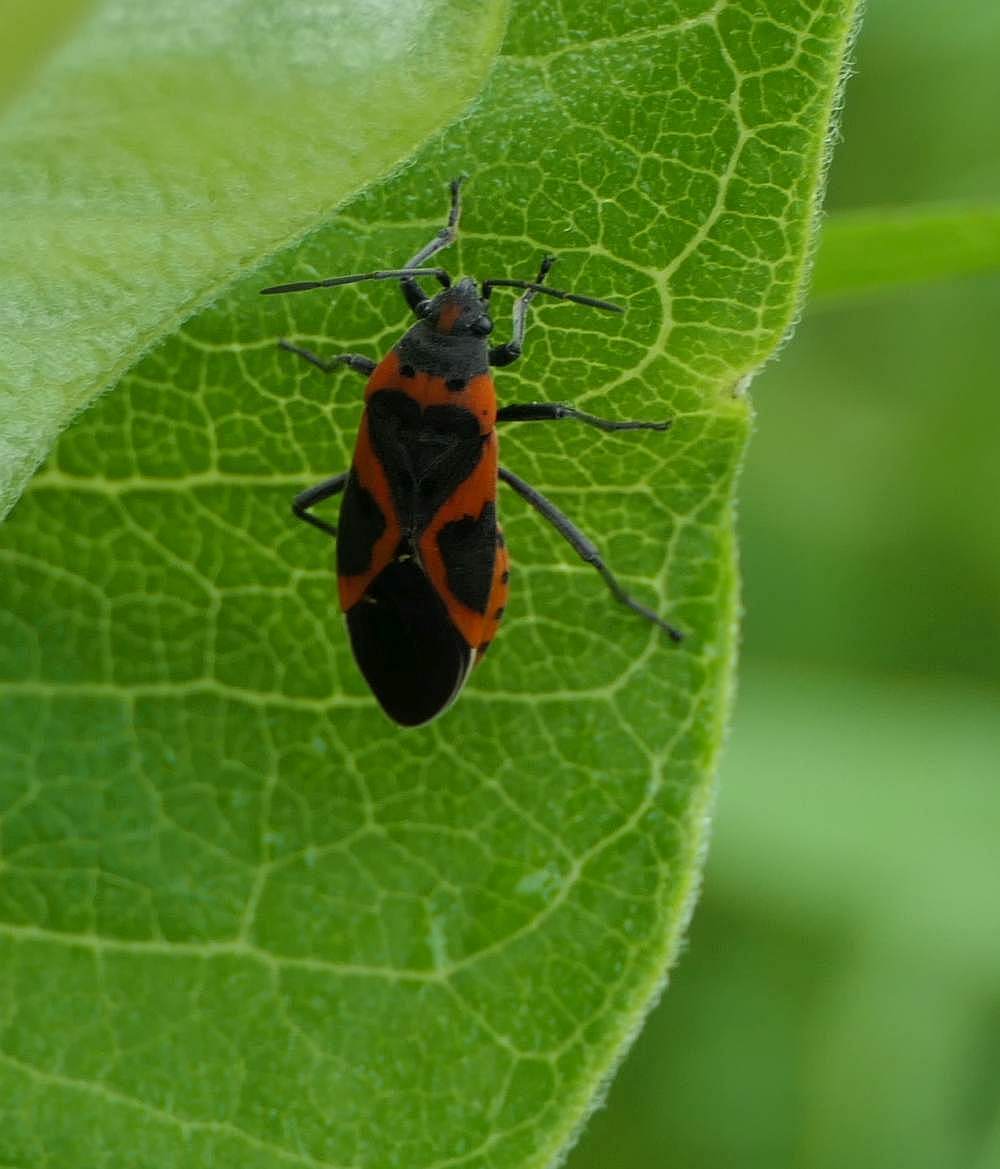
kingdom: Animalia
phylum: Arthropoda
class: Insecta
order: Hemiptera
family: Lygaeidae
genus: Lygaeus
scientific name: Lygaeus kalmii
